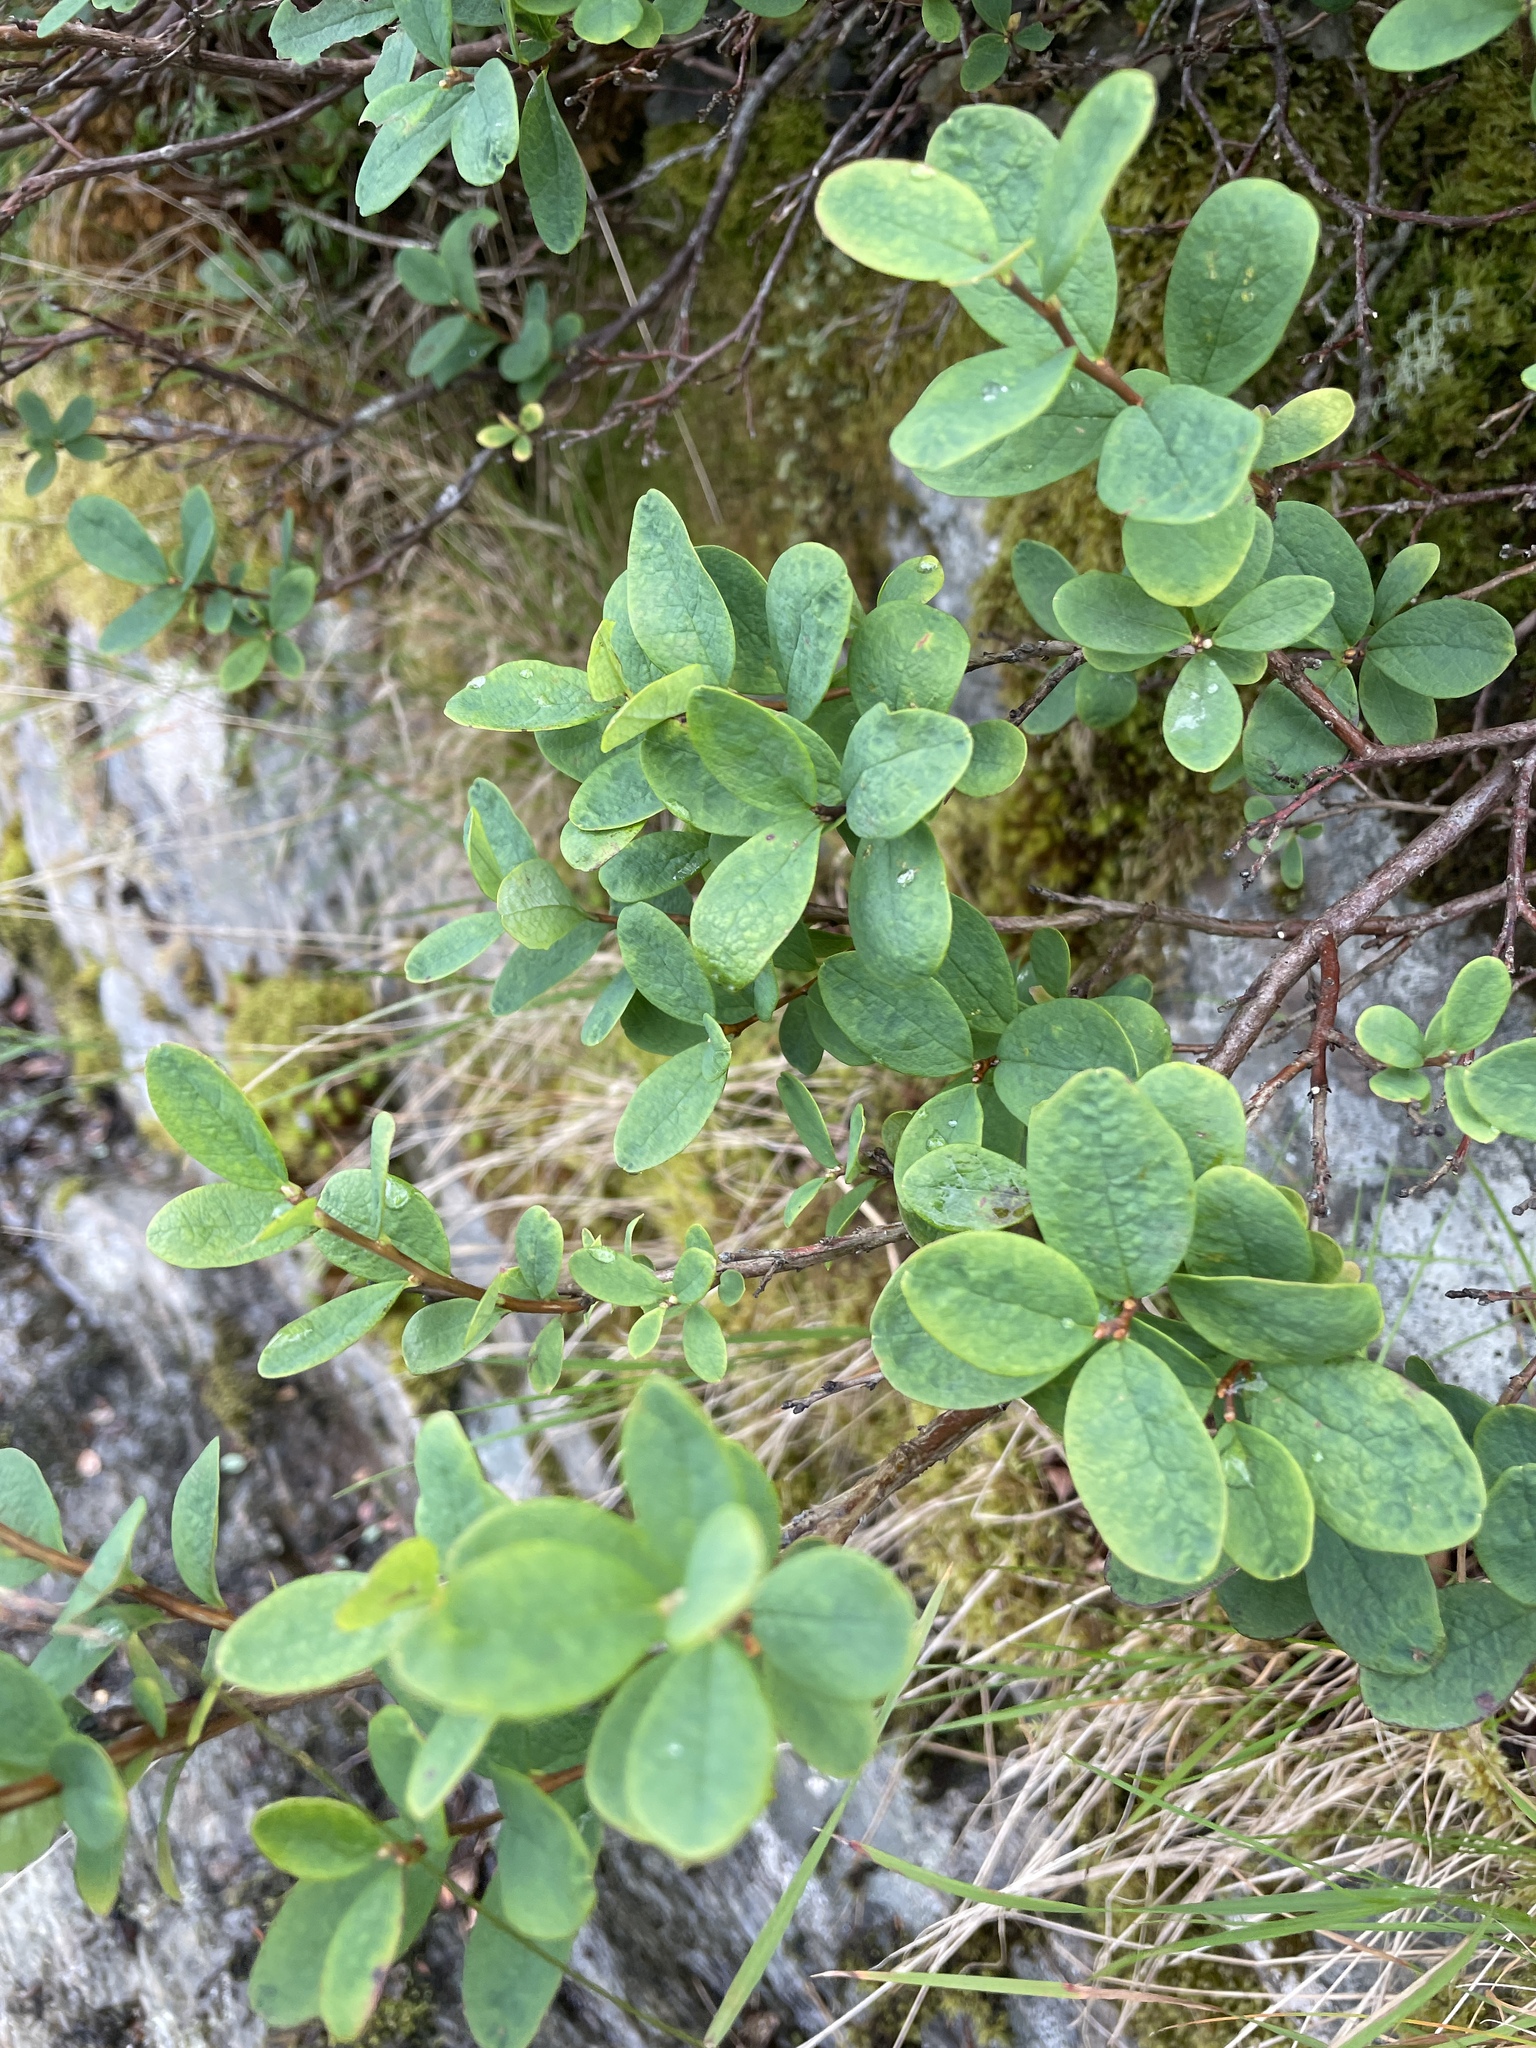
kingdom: Plantae
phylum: Tracheophyta
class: Magnoliopsida
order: Ericales
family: Ericaceae
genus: Vaccinium
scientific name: Vaccinium uliginosum
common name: Bog bilberry
